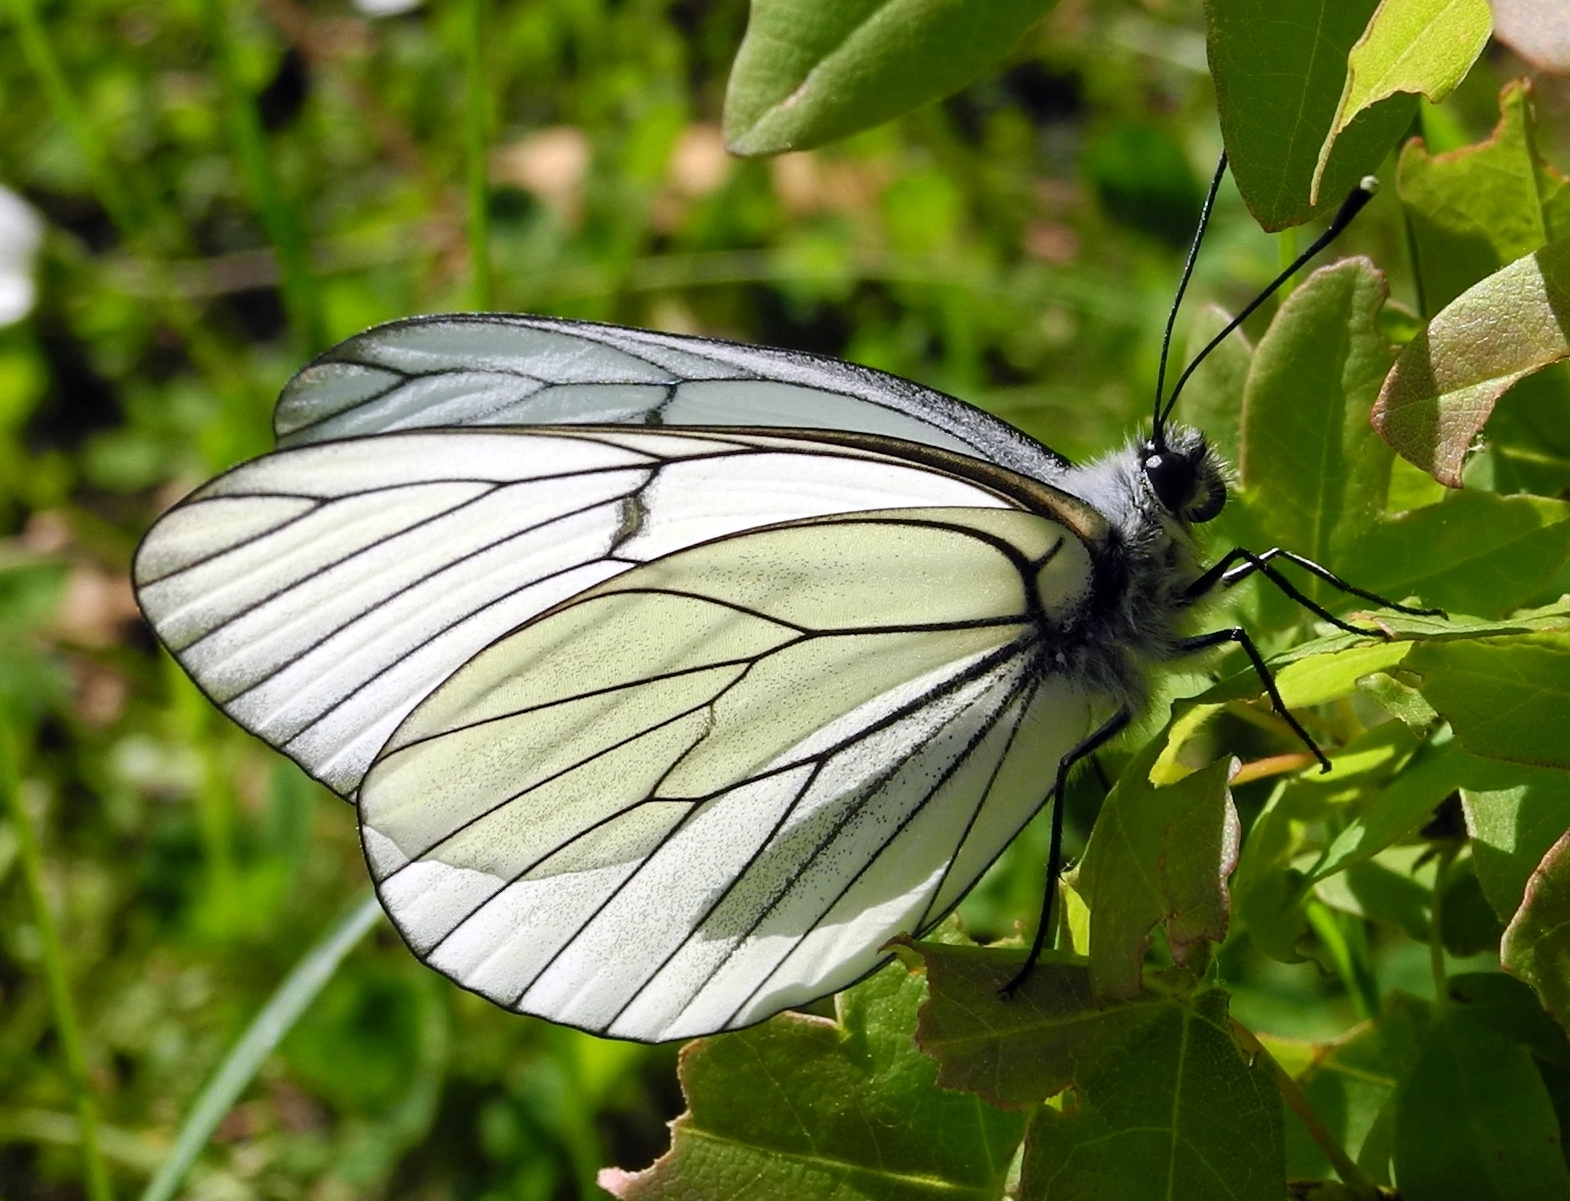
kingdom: Animalia
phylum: Arthropoda
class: Insecta
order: Lepidoptera
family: Pieridae
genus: Aporia
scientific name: Aporia crataegi
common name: Black-veined white
